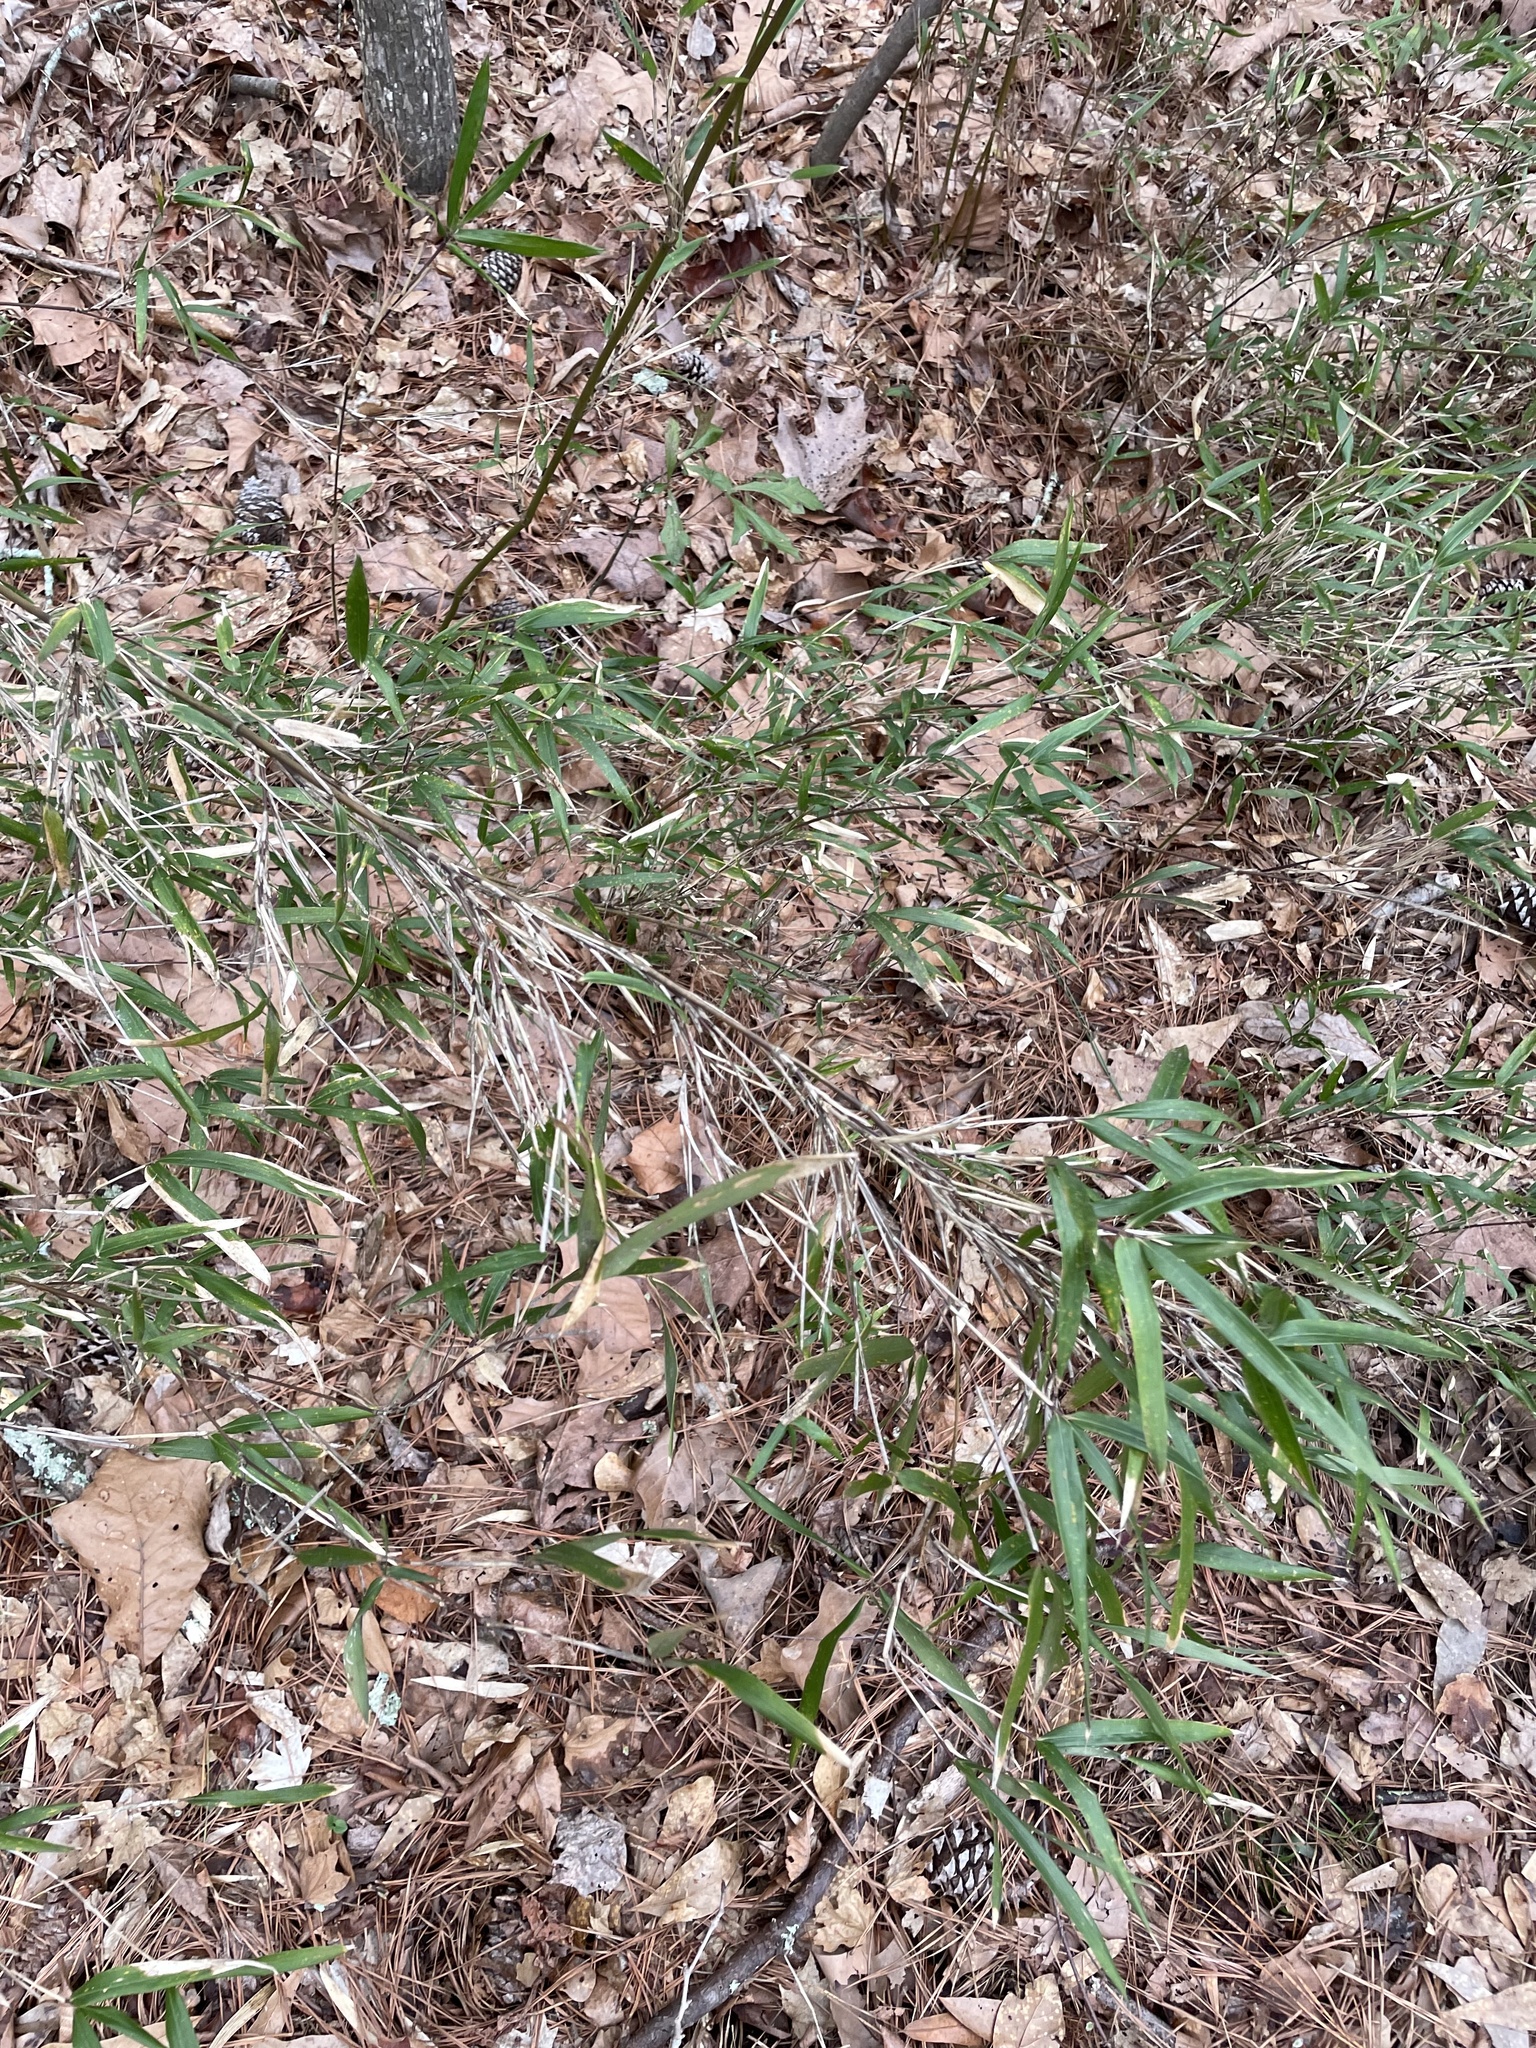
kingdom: Plantae
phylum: Tracheophyta
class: Liliopsida
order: Poales
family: Poaceae
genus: Arundinaria
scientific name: Arundinaria gigantea
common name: Giant cane
